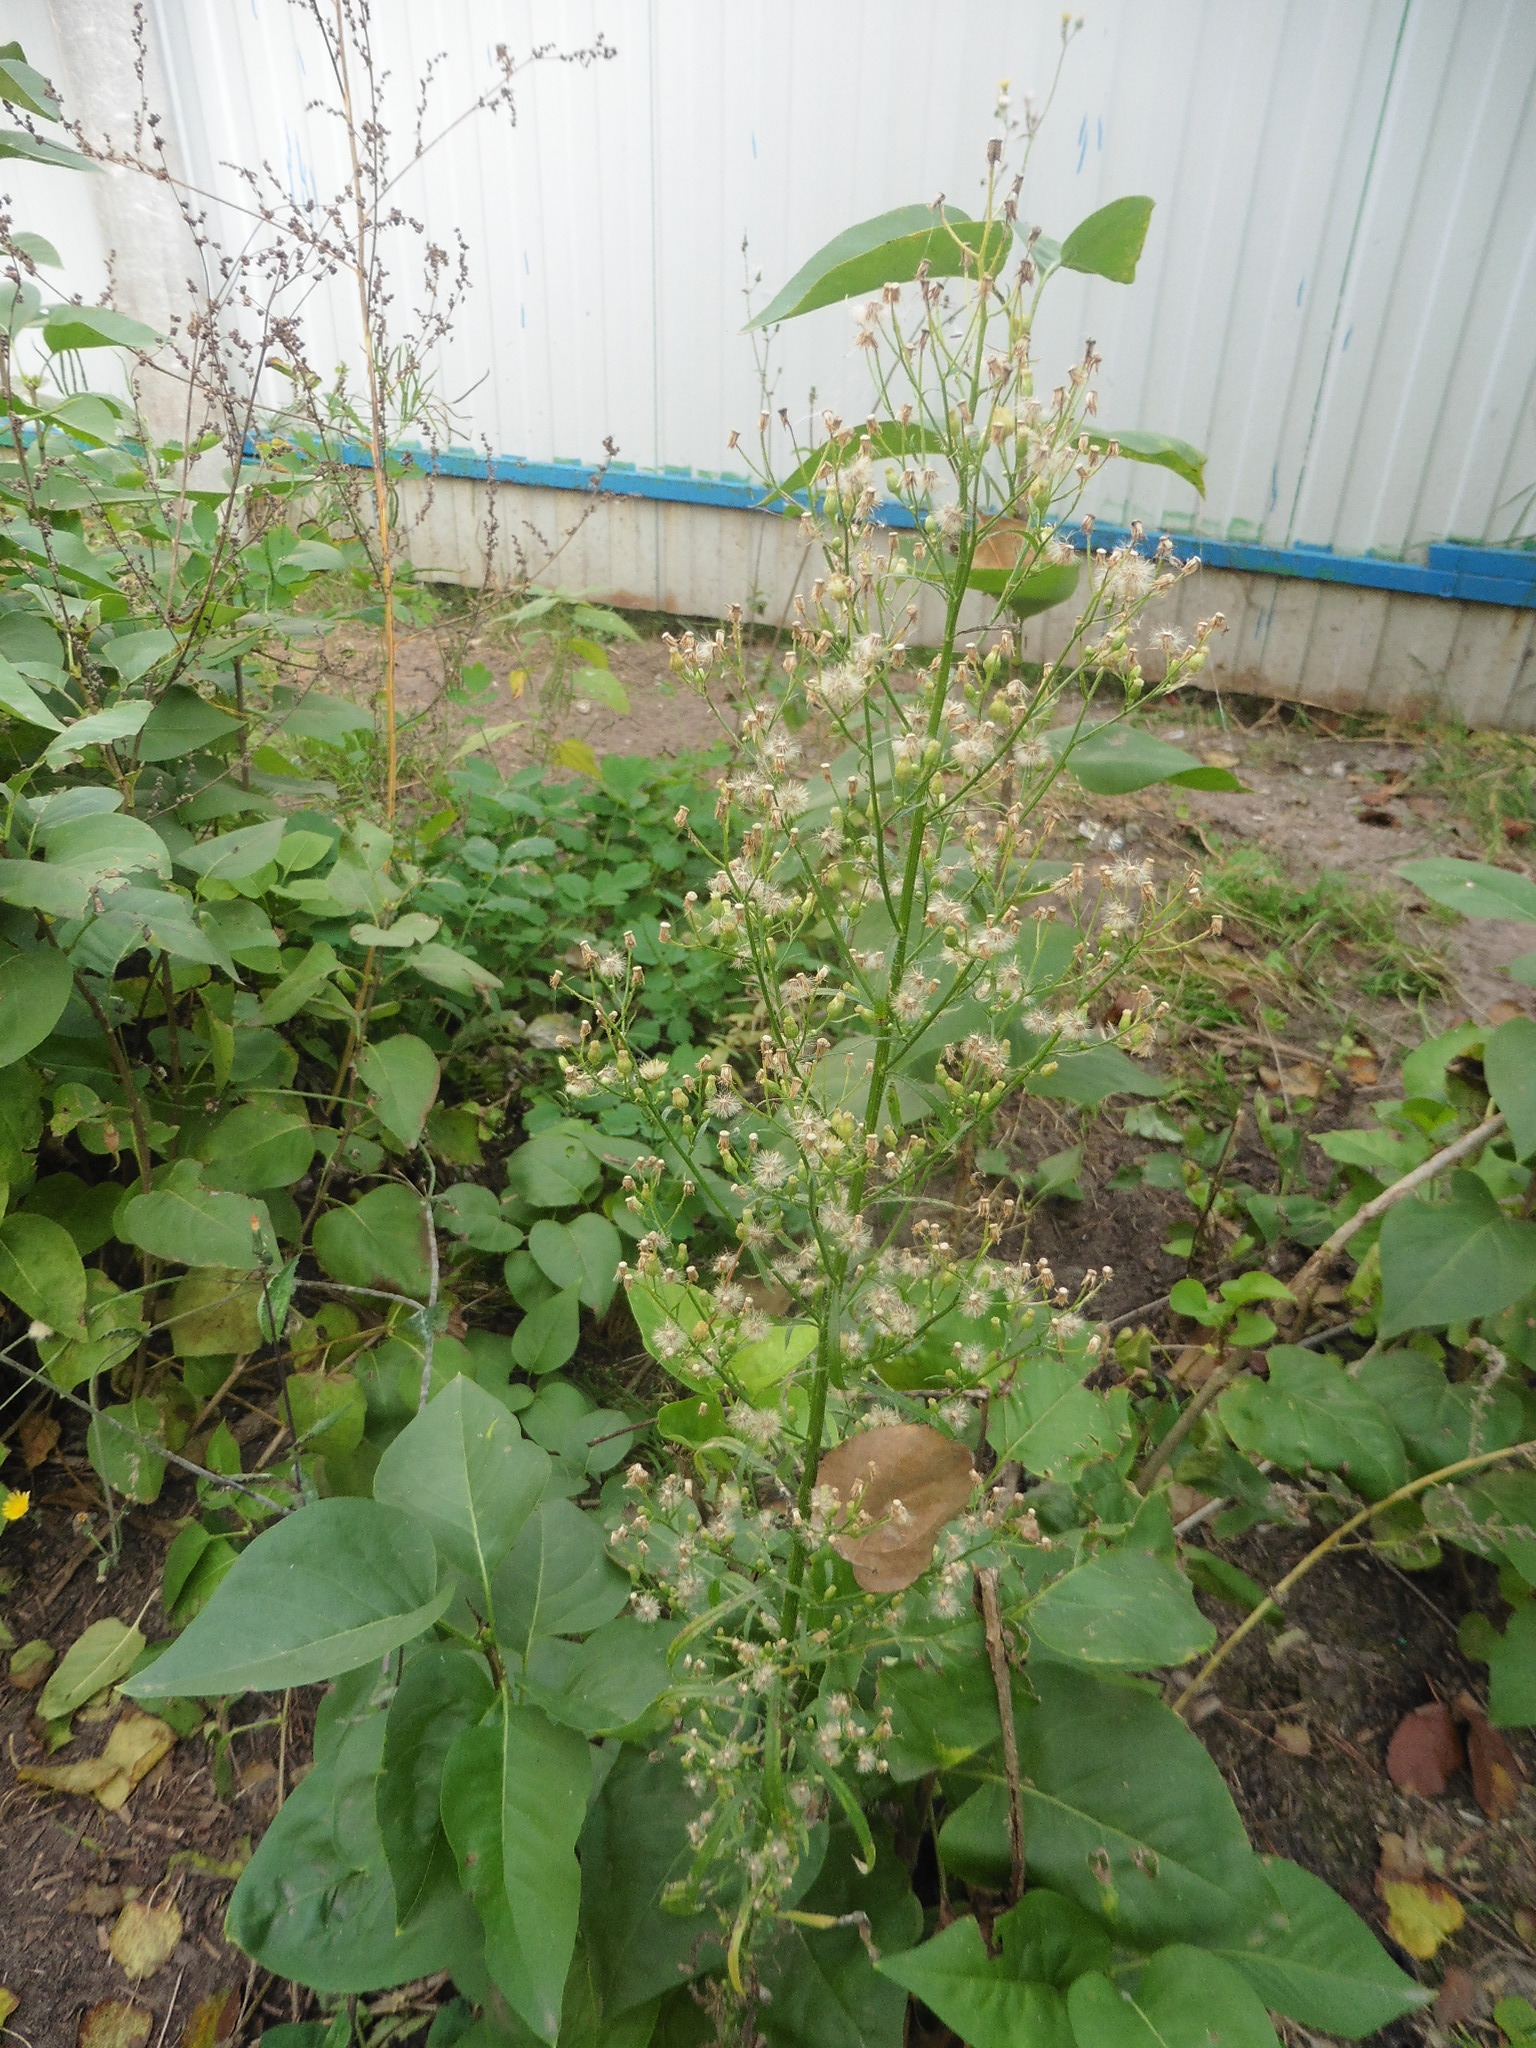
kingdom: Plantae
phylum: Tracheophyta
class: Magnoliopsida
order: Asterales
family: Asteraceae
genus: Erigeron
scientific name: Erigeron canadensis
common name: Canadian fleabane
